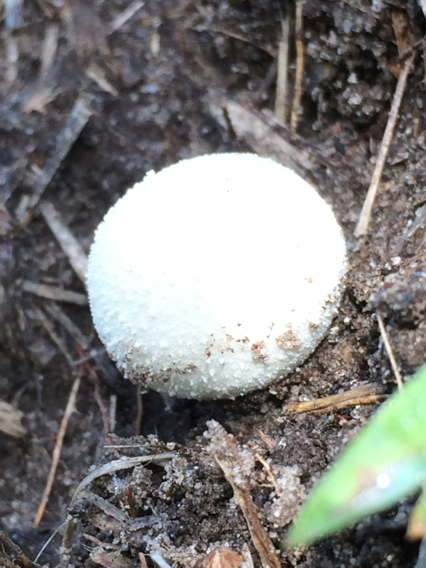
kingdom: Fungi
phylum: Basidiomycota
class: Agaricomycetes
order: Agaricales
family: Lycoperdaceae
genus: Lycoperdon
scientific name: Lycoperdon perlatum
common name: Common puffball
